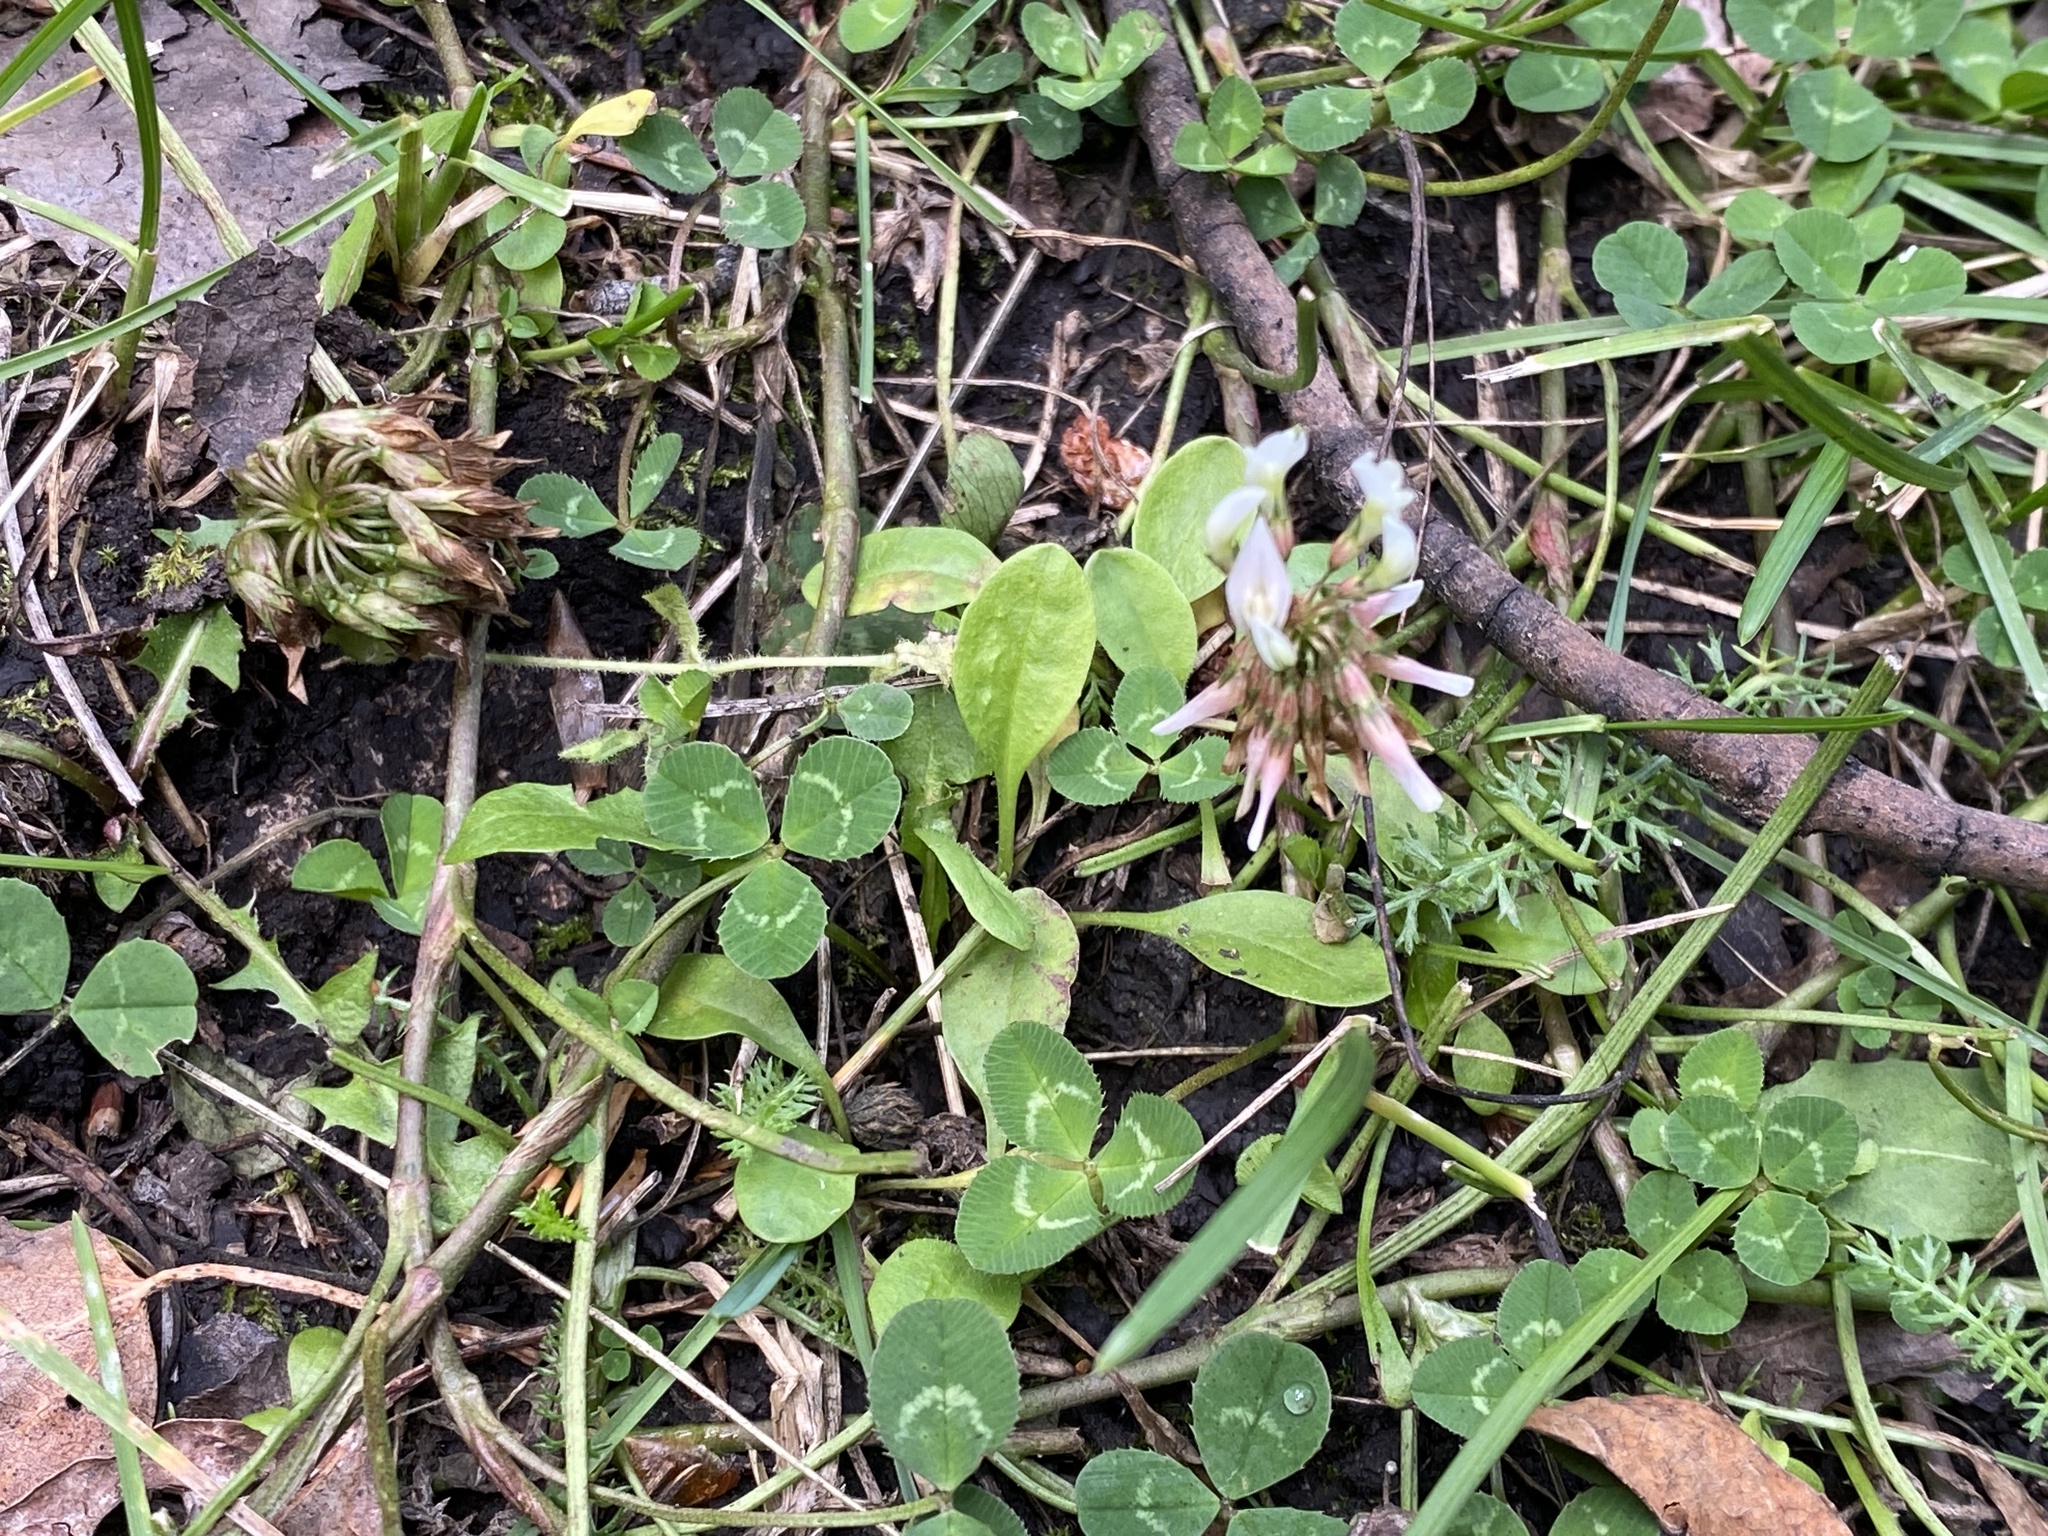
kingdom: Plantae
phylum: Tracheophyta
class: Magnoliopsida
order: Fabales
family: Fabaceae
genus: Trifolium
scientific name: Trifolium repens
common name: White clover
